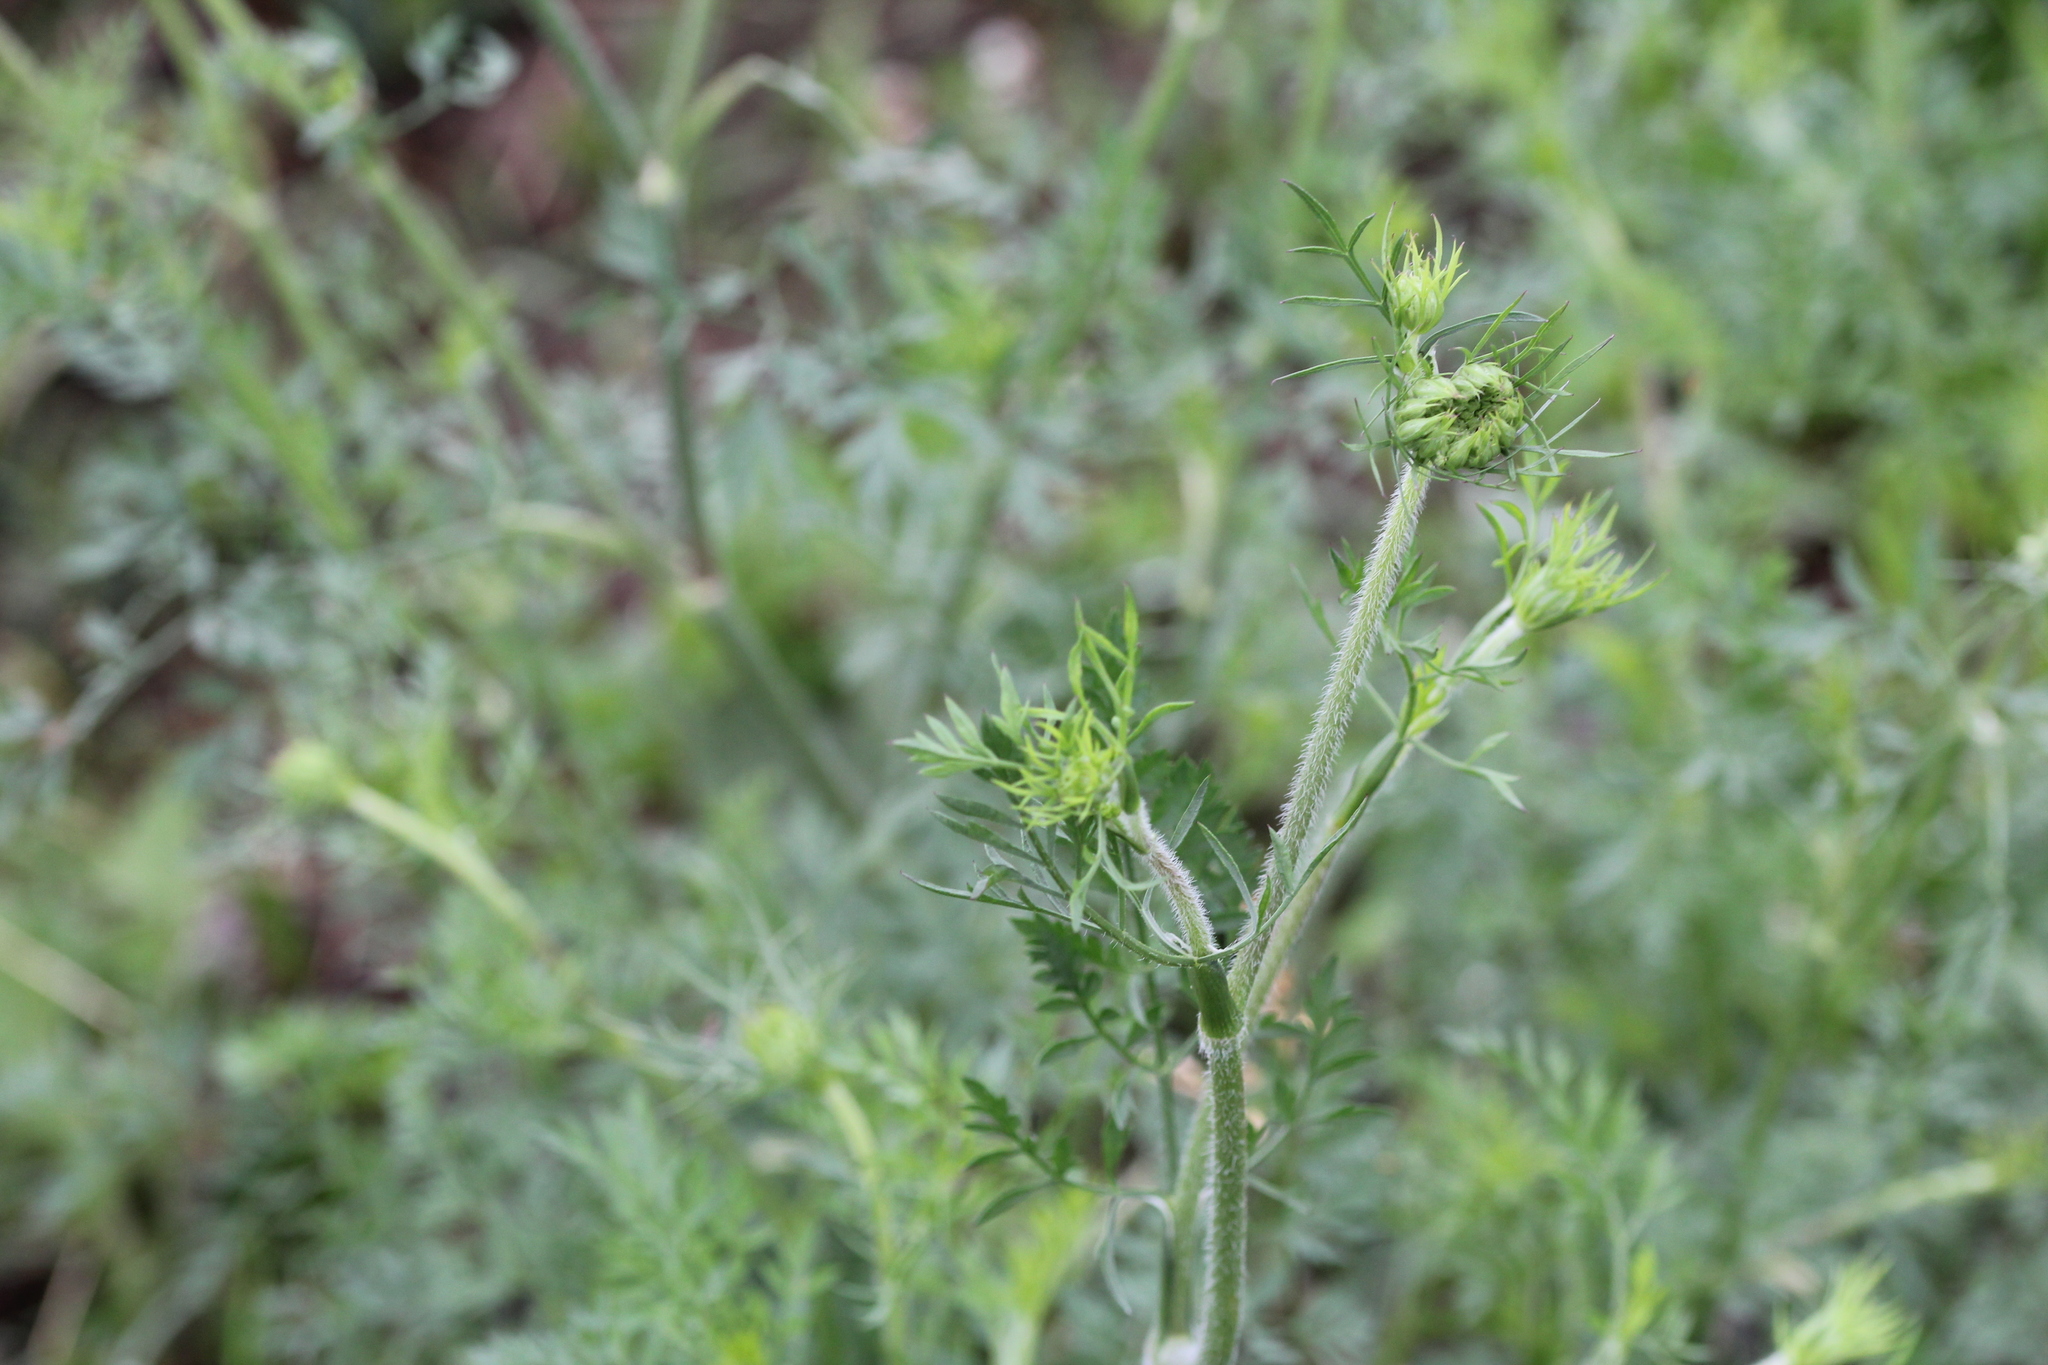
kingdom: Plantae
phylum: Tracheophyta
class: Magnoliopsida
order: Apiales
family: Apiaceae
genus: Daucus
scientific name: Daucus carota
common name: Wild carrot
